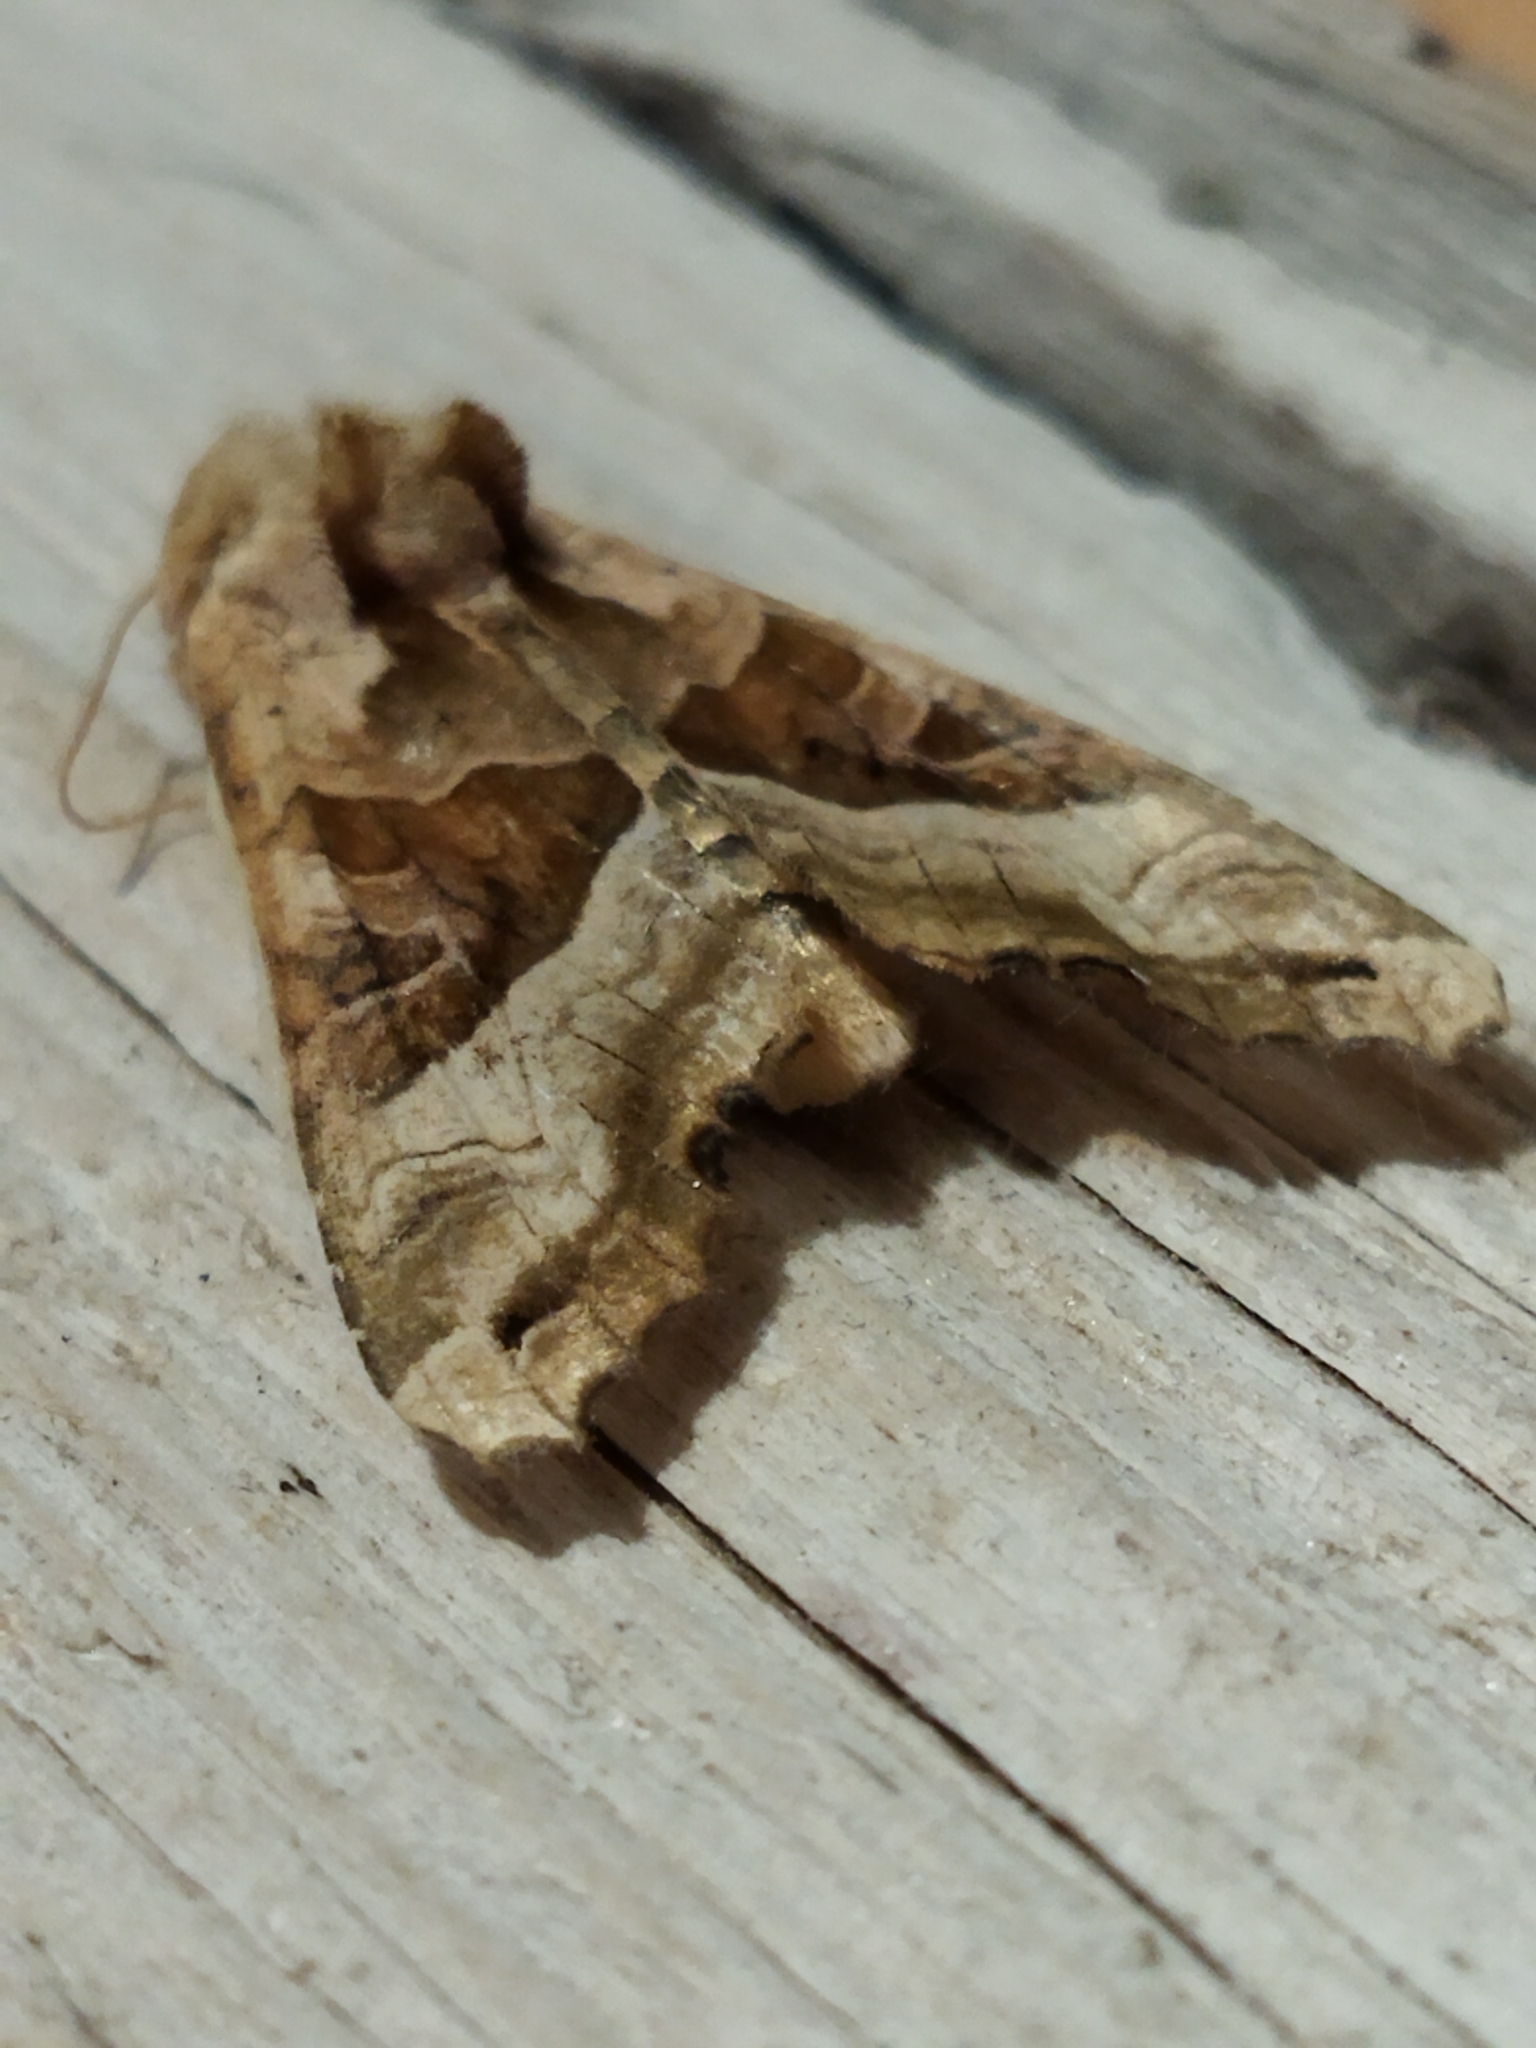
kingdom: Animalia
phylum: Arthropoda
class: Insecta
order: Lepidoptera
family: Noctuidae
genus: Phlogophora
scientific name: Phlogophora meticulosa
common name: Angle shades
